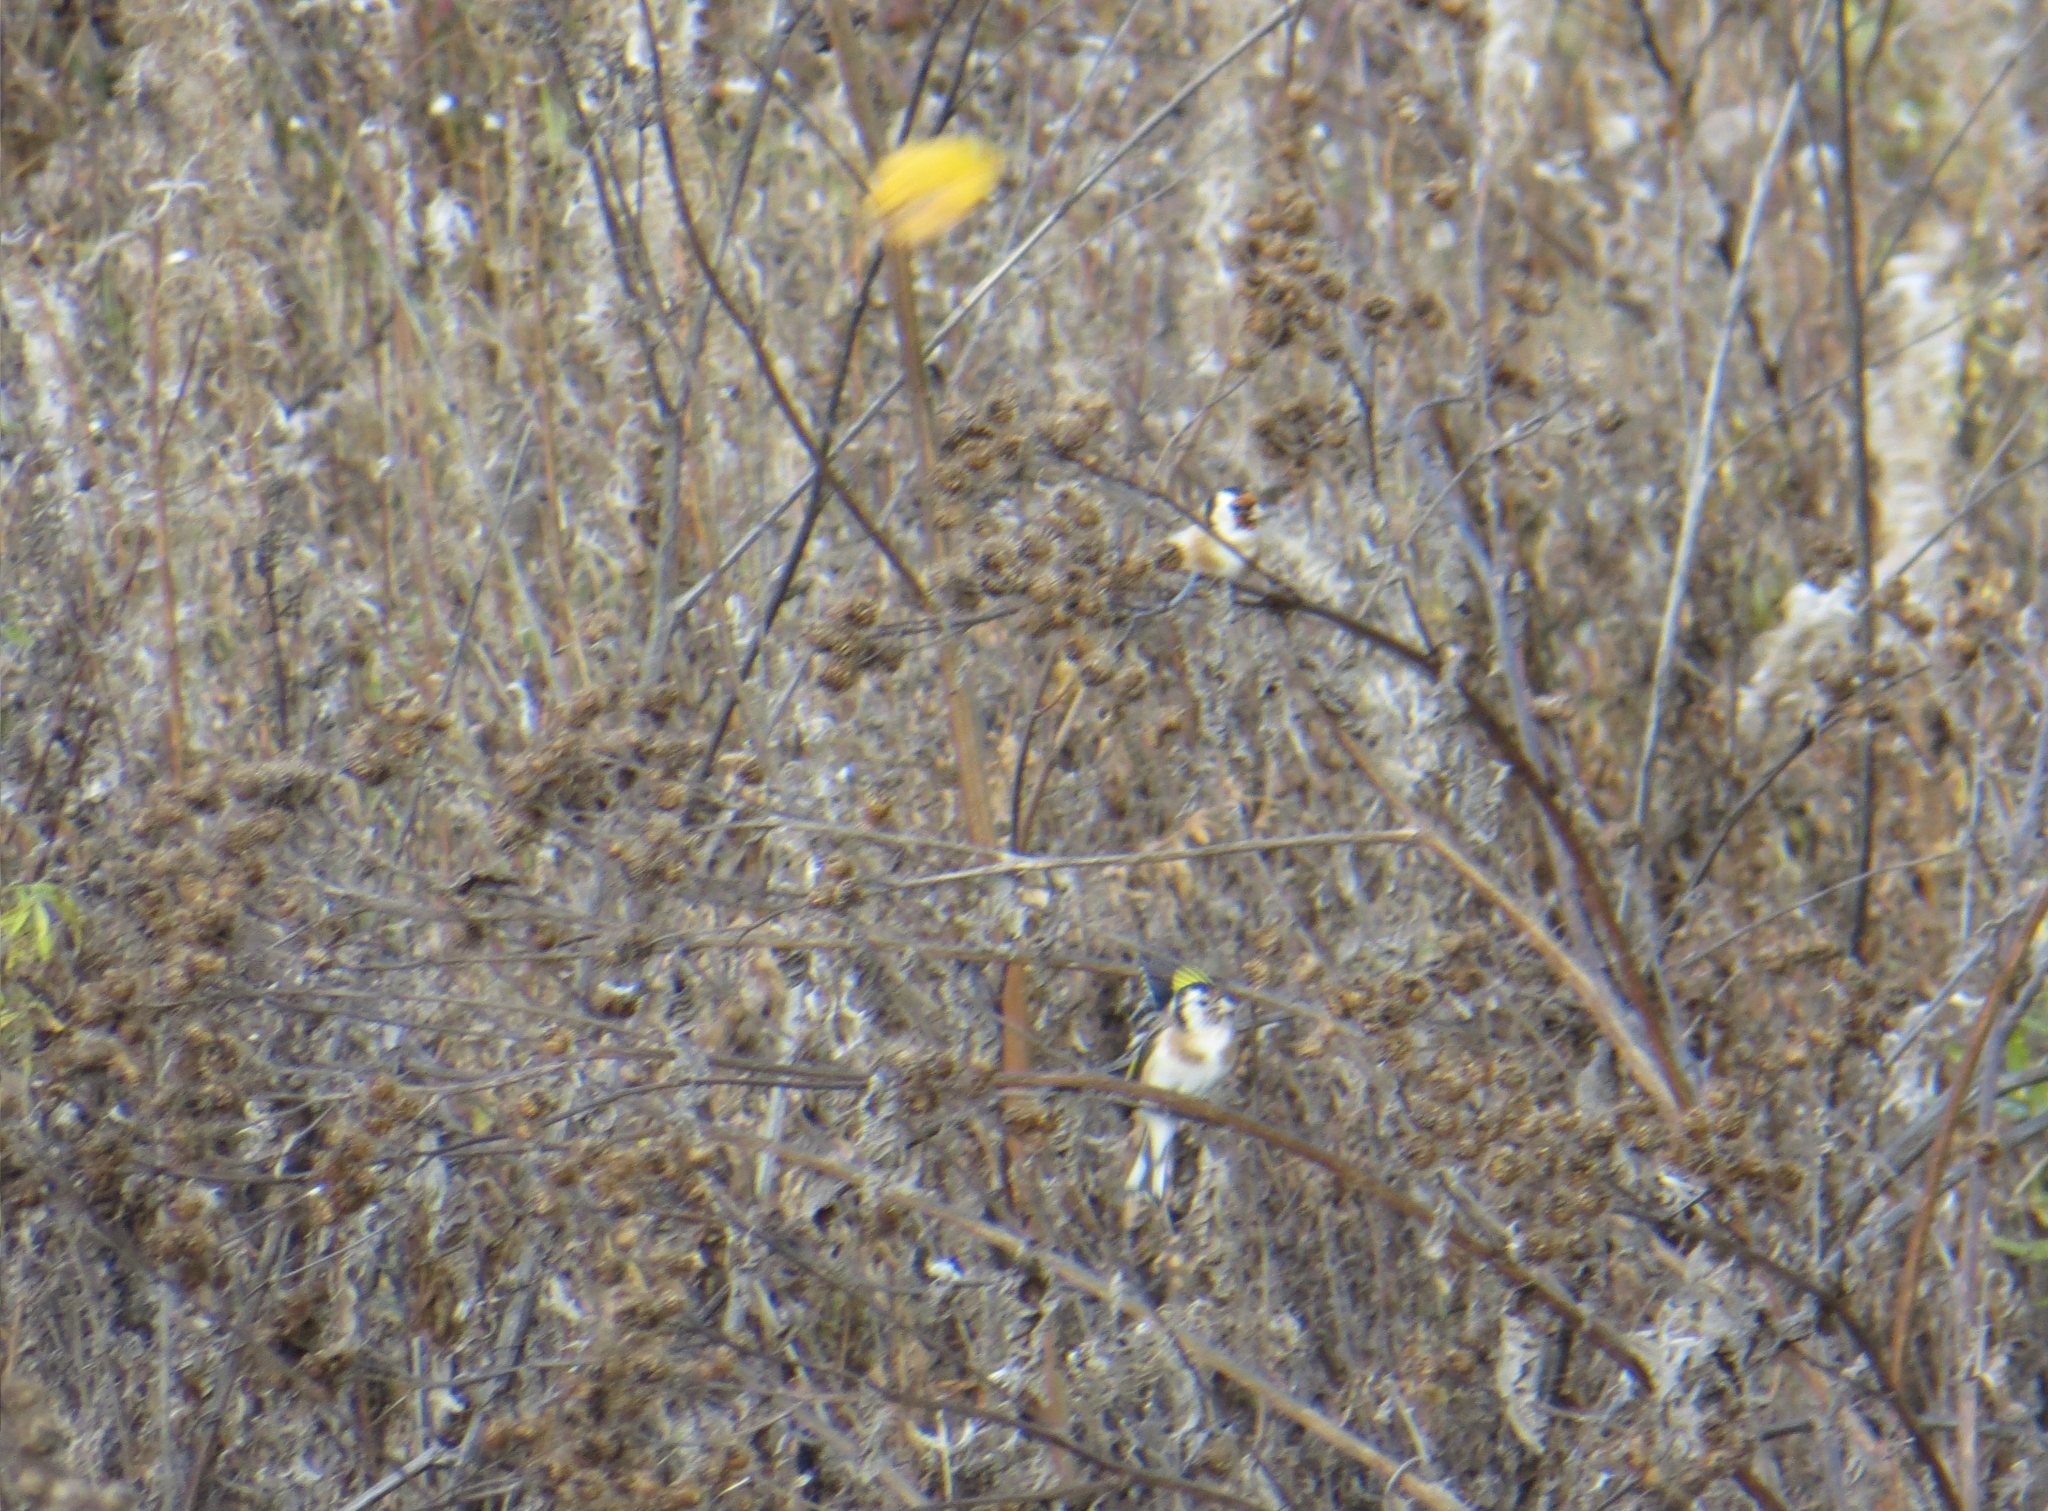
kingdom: Animalia
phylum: Chordata
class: Aves
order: Passeriformes
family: Fringillidae
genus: Carduelis
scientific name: Carduelis carduelis
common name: European goldfinch
